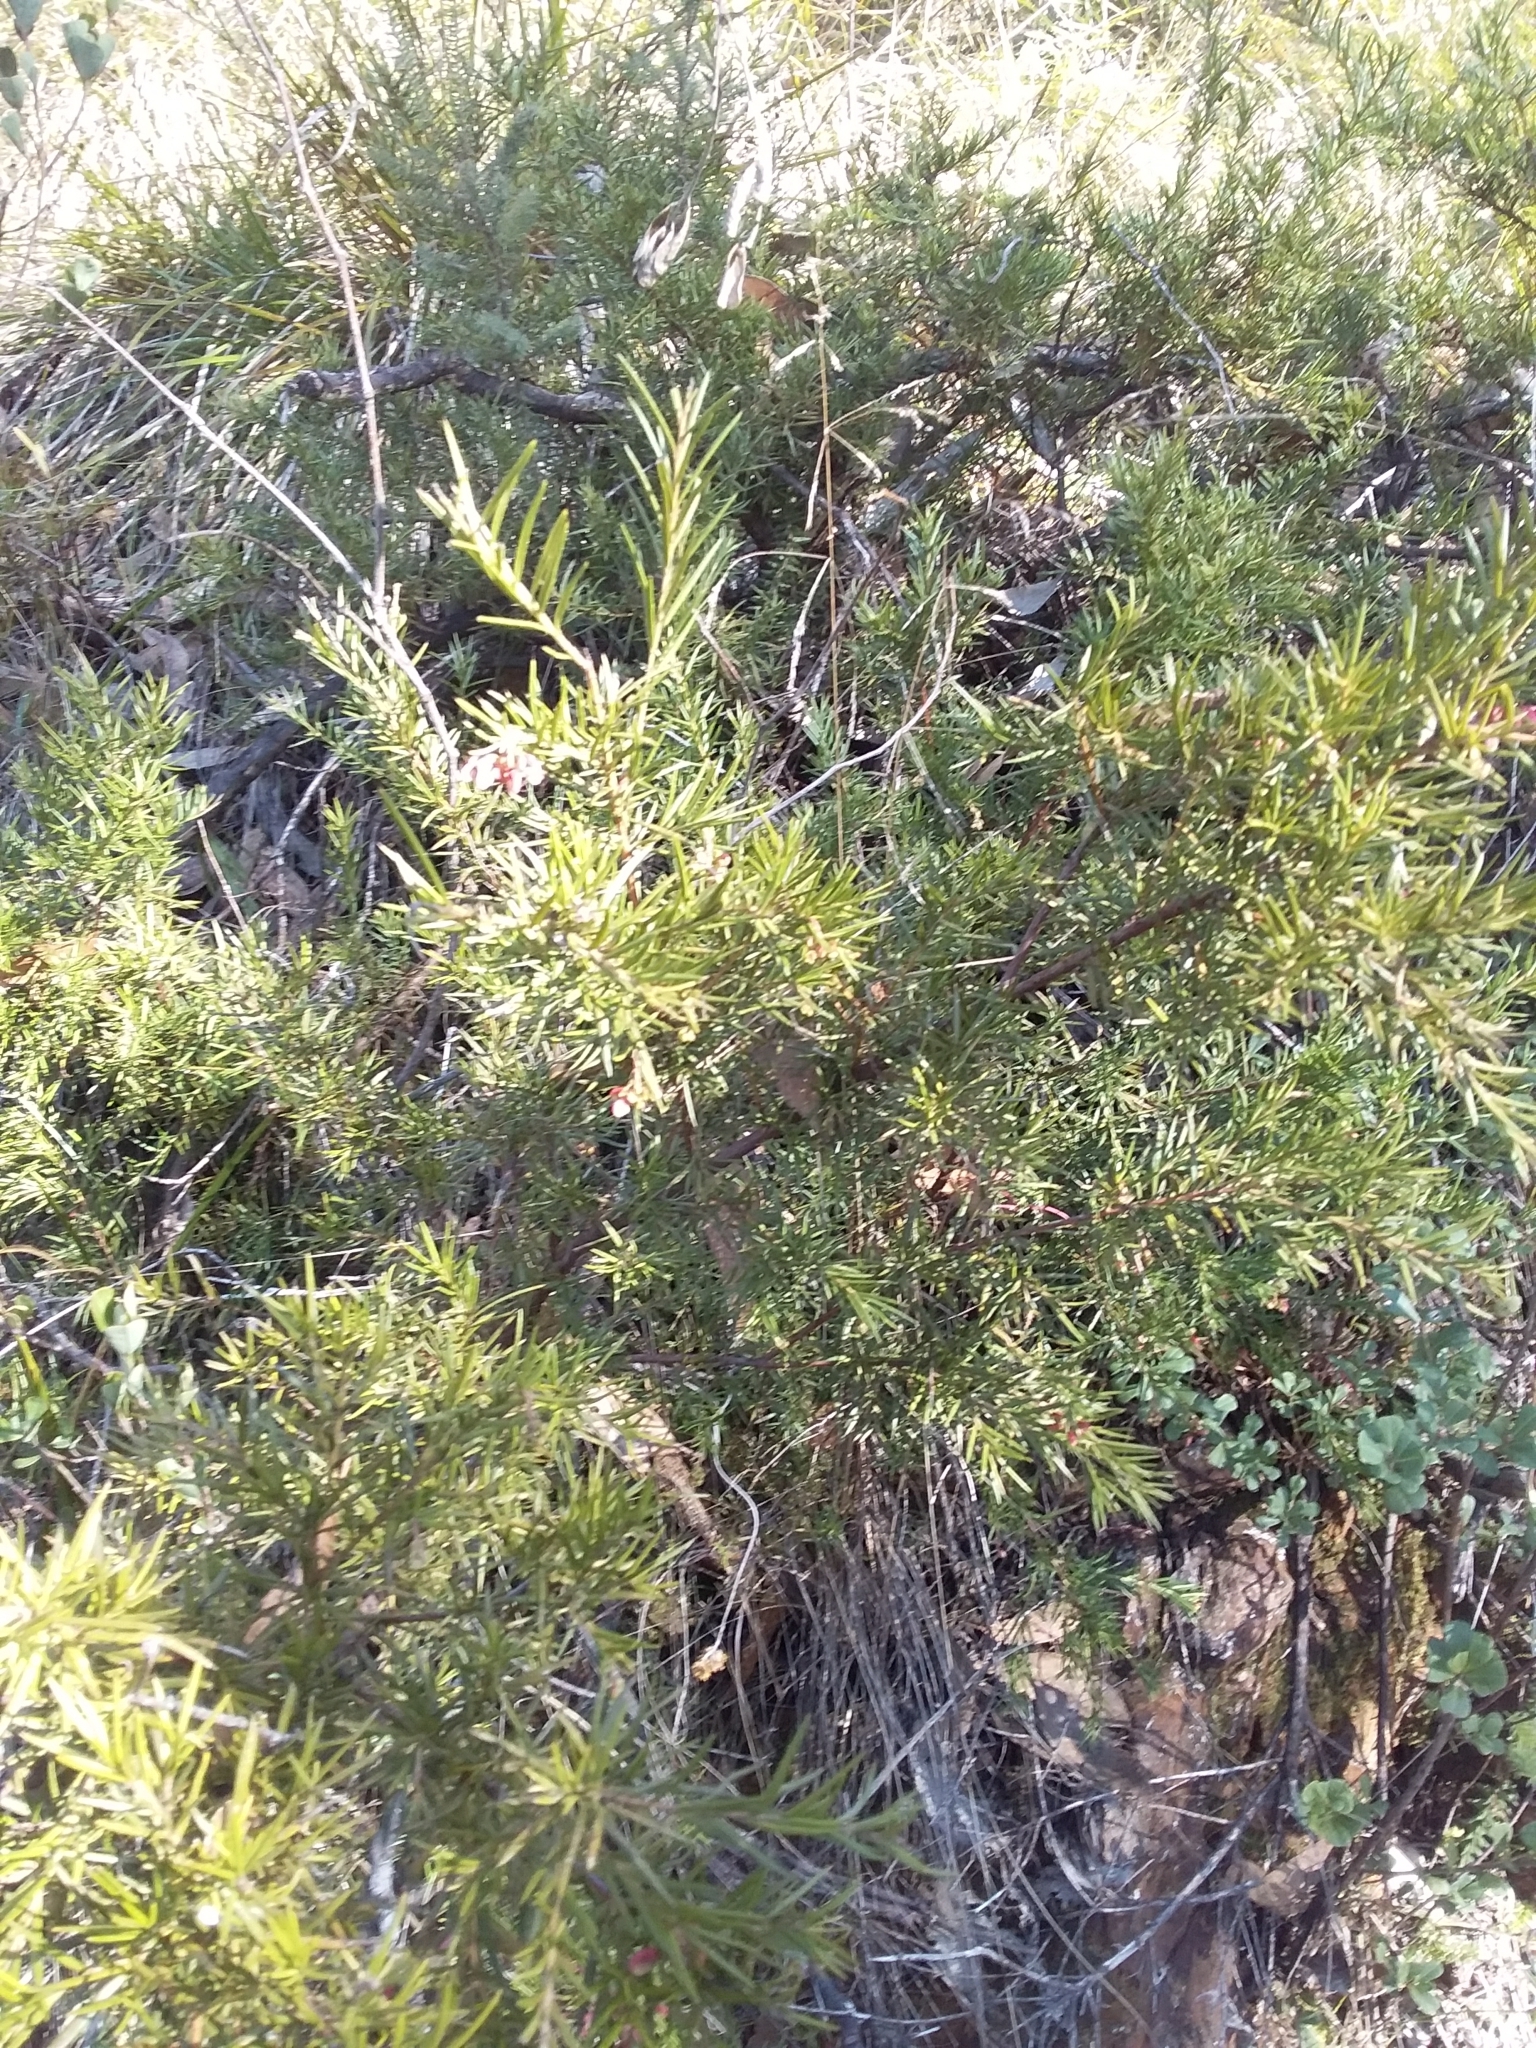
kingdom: Plantae
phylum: Tracheophyta
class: Magnoliopsida
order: Proteales
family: Proteaceae
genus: Grevillea
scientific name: Grevillea rosmarinifolia
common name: Rosemary grevillea
